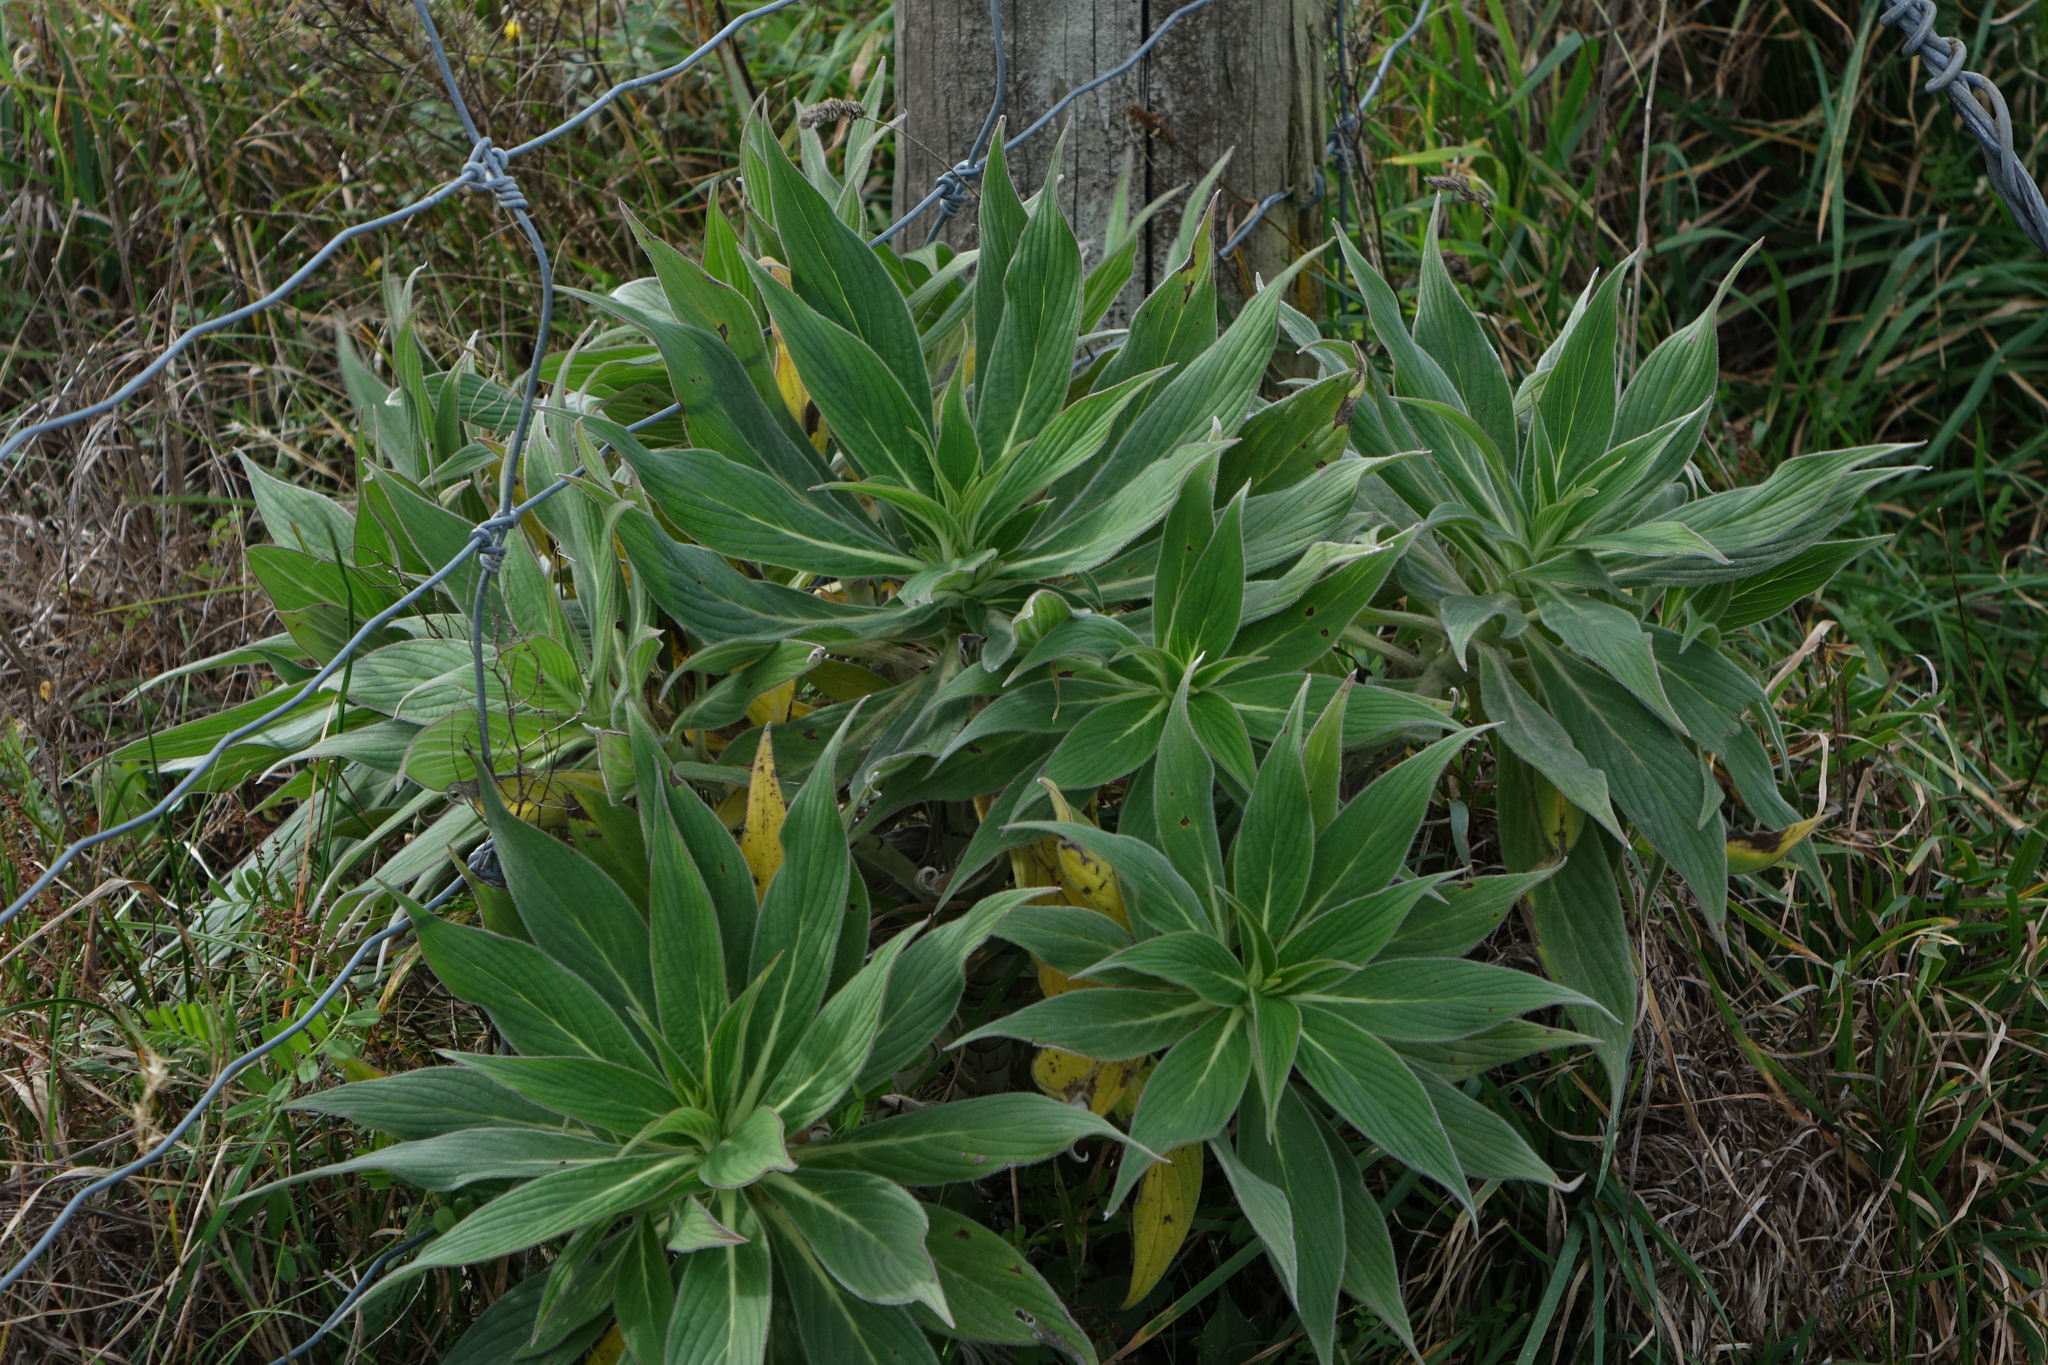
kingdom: Plantae
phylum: Tracheophyta
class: Magnoliopsida
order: Boraginales
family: Boraginaceae
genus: Echium
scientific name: Echium candicans
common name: Pride of madeira
